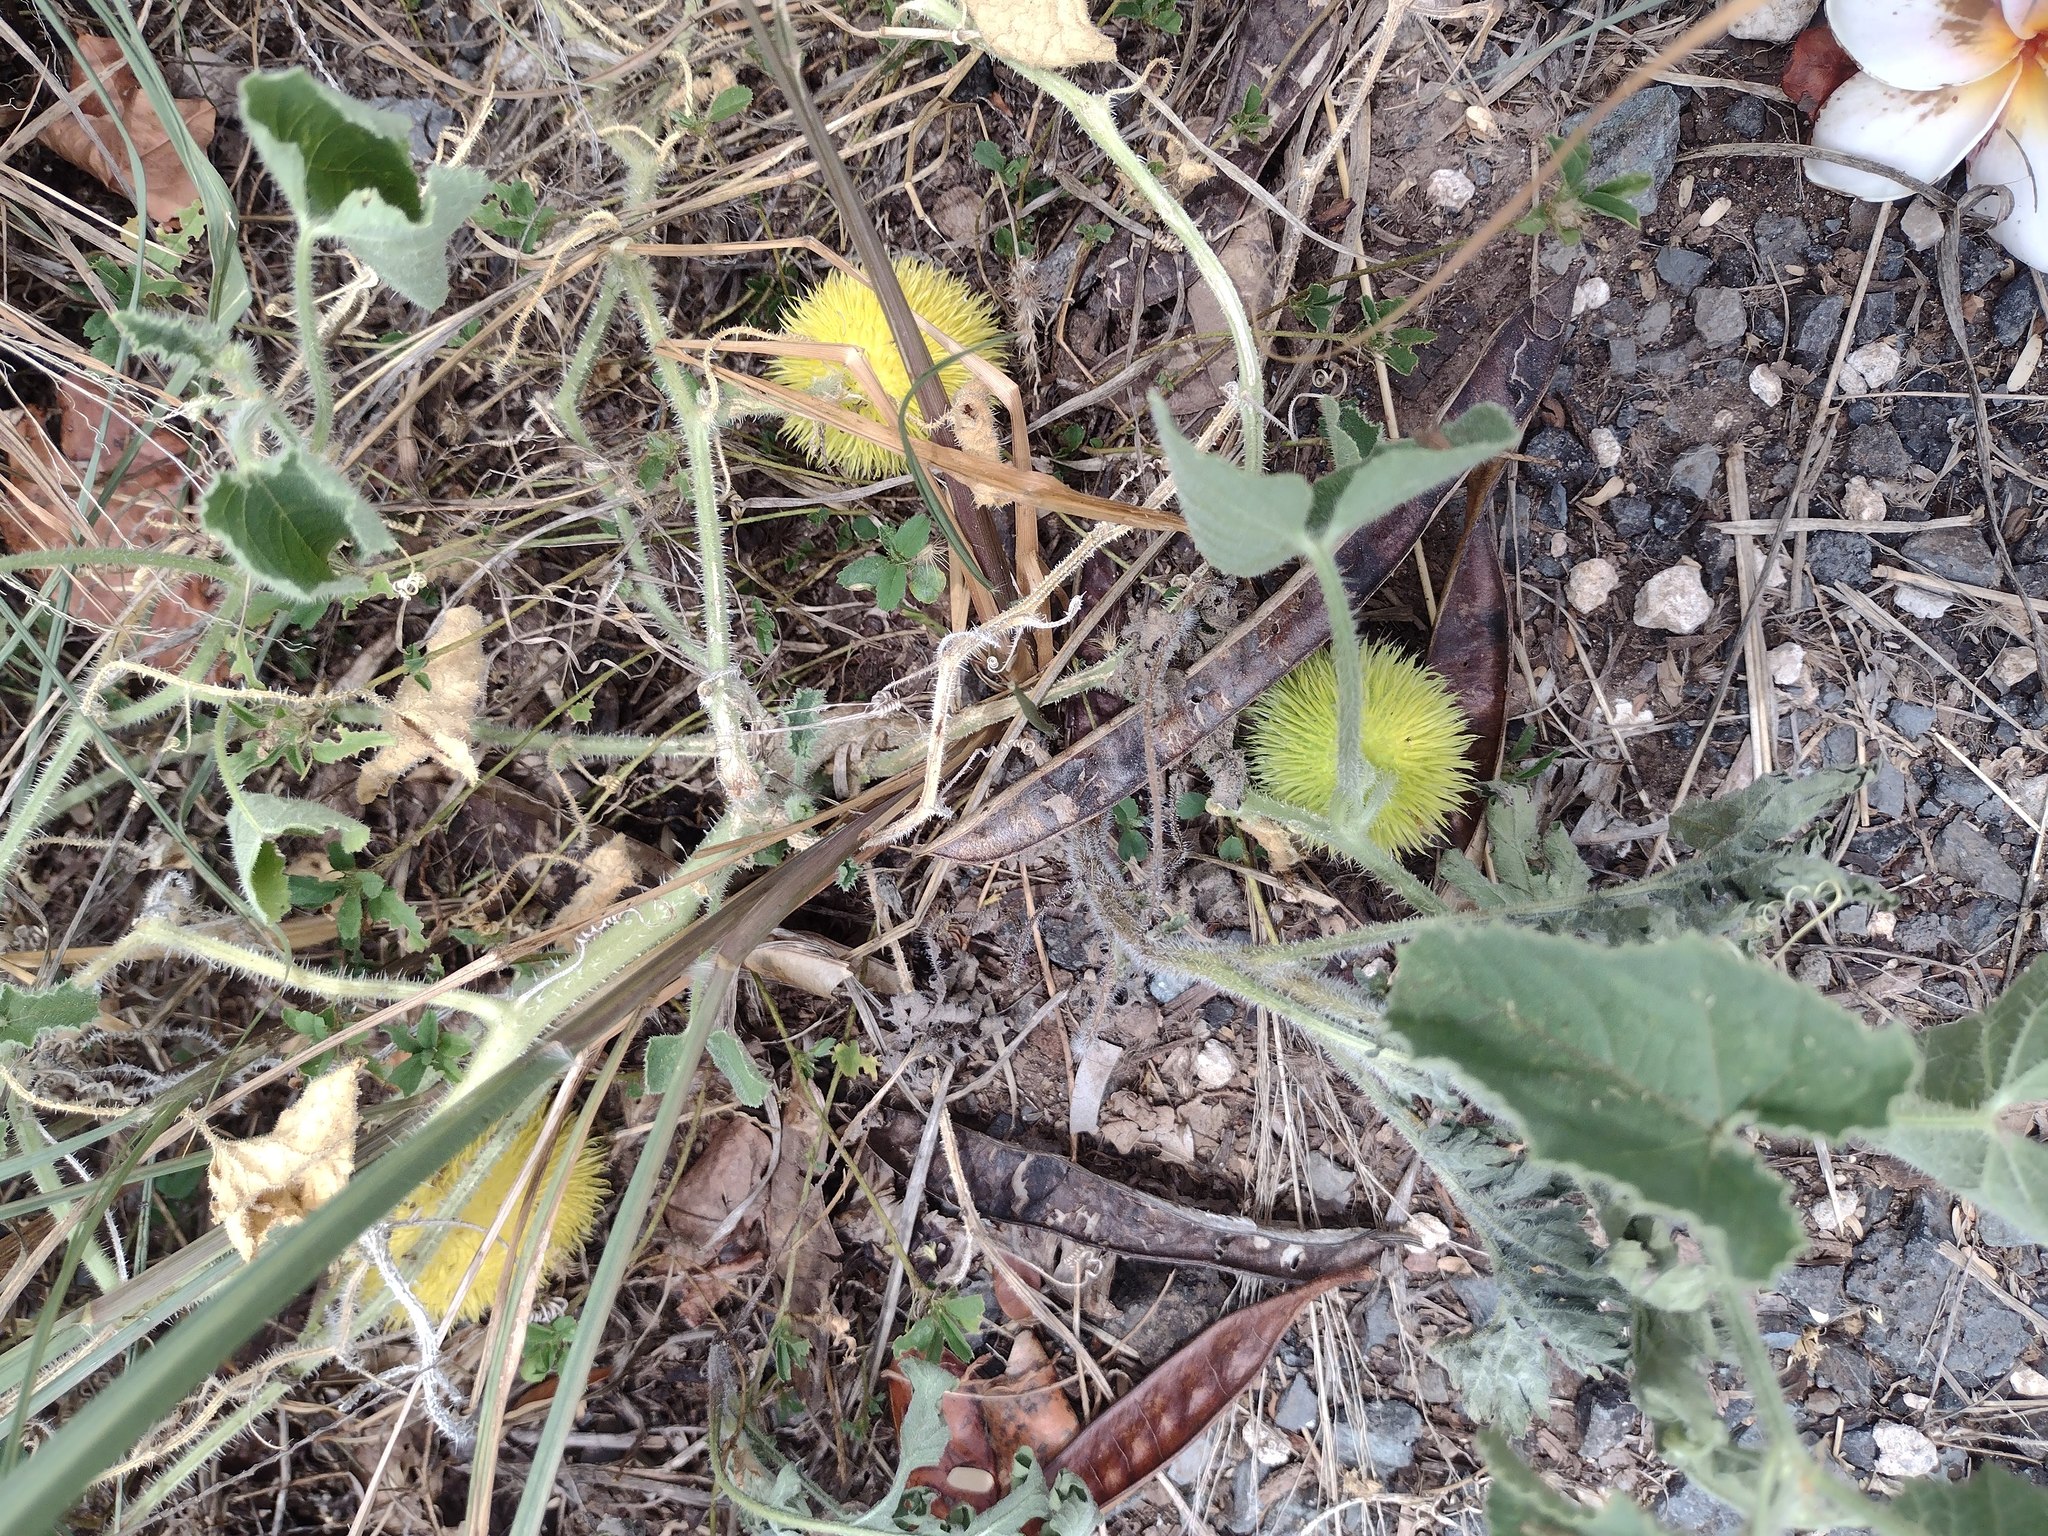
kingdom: Plantae
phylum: Tracheophyta
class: Magnoliopsida
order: Cucurbitales
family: Cucurbitaceae
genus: Cucumis
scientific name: Cucumis dipsaceus
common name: Hedgehog gourd
